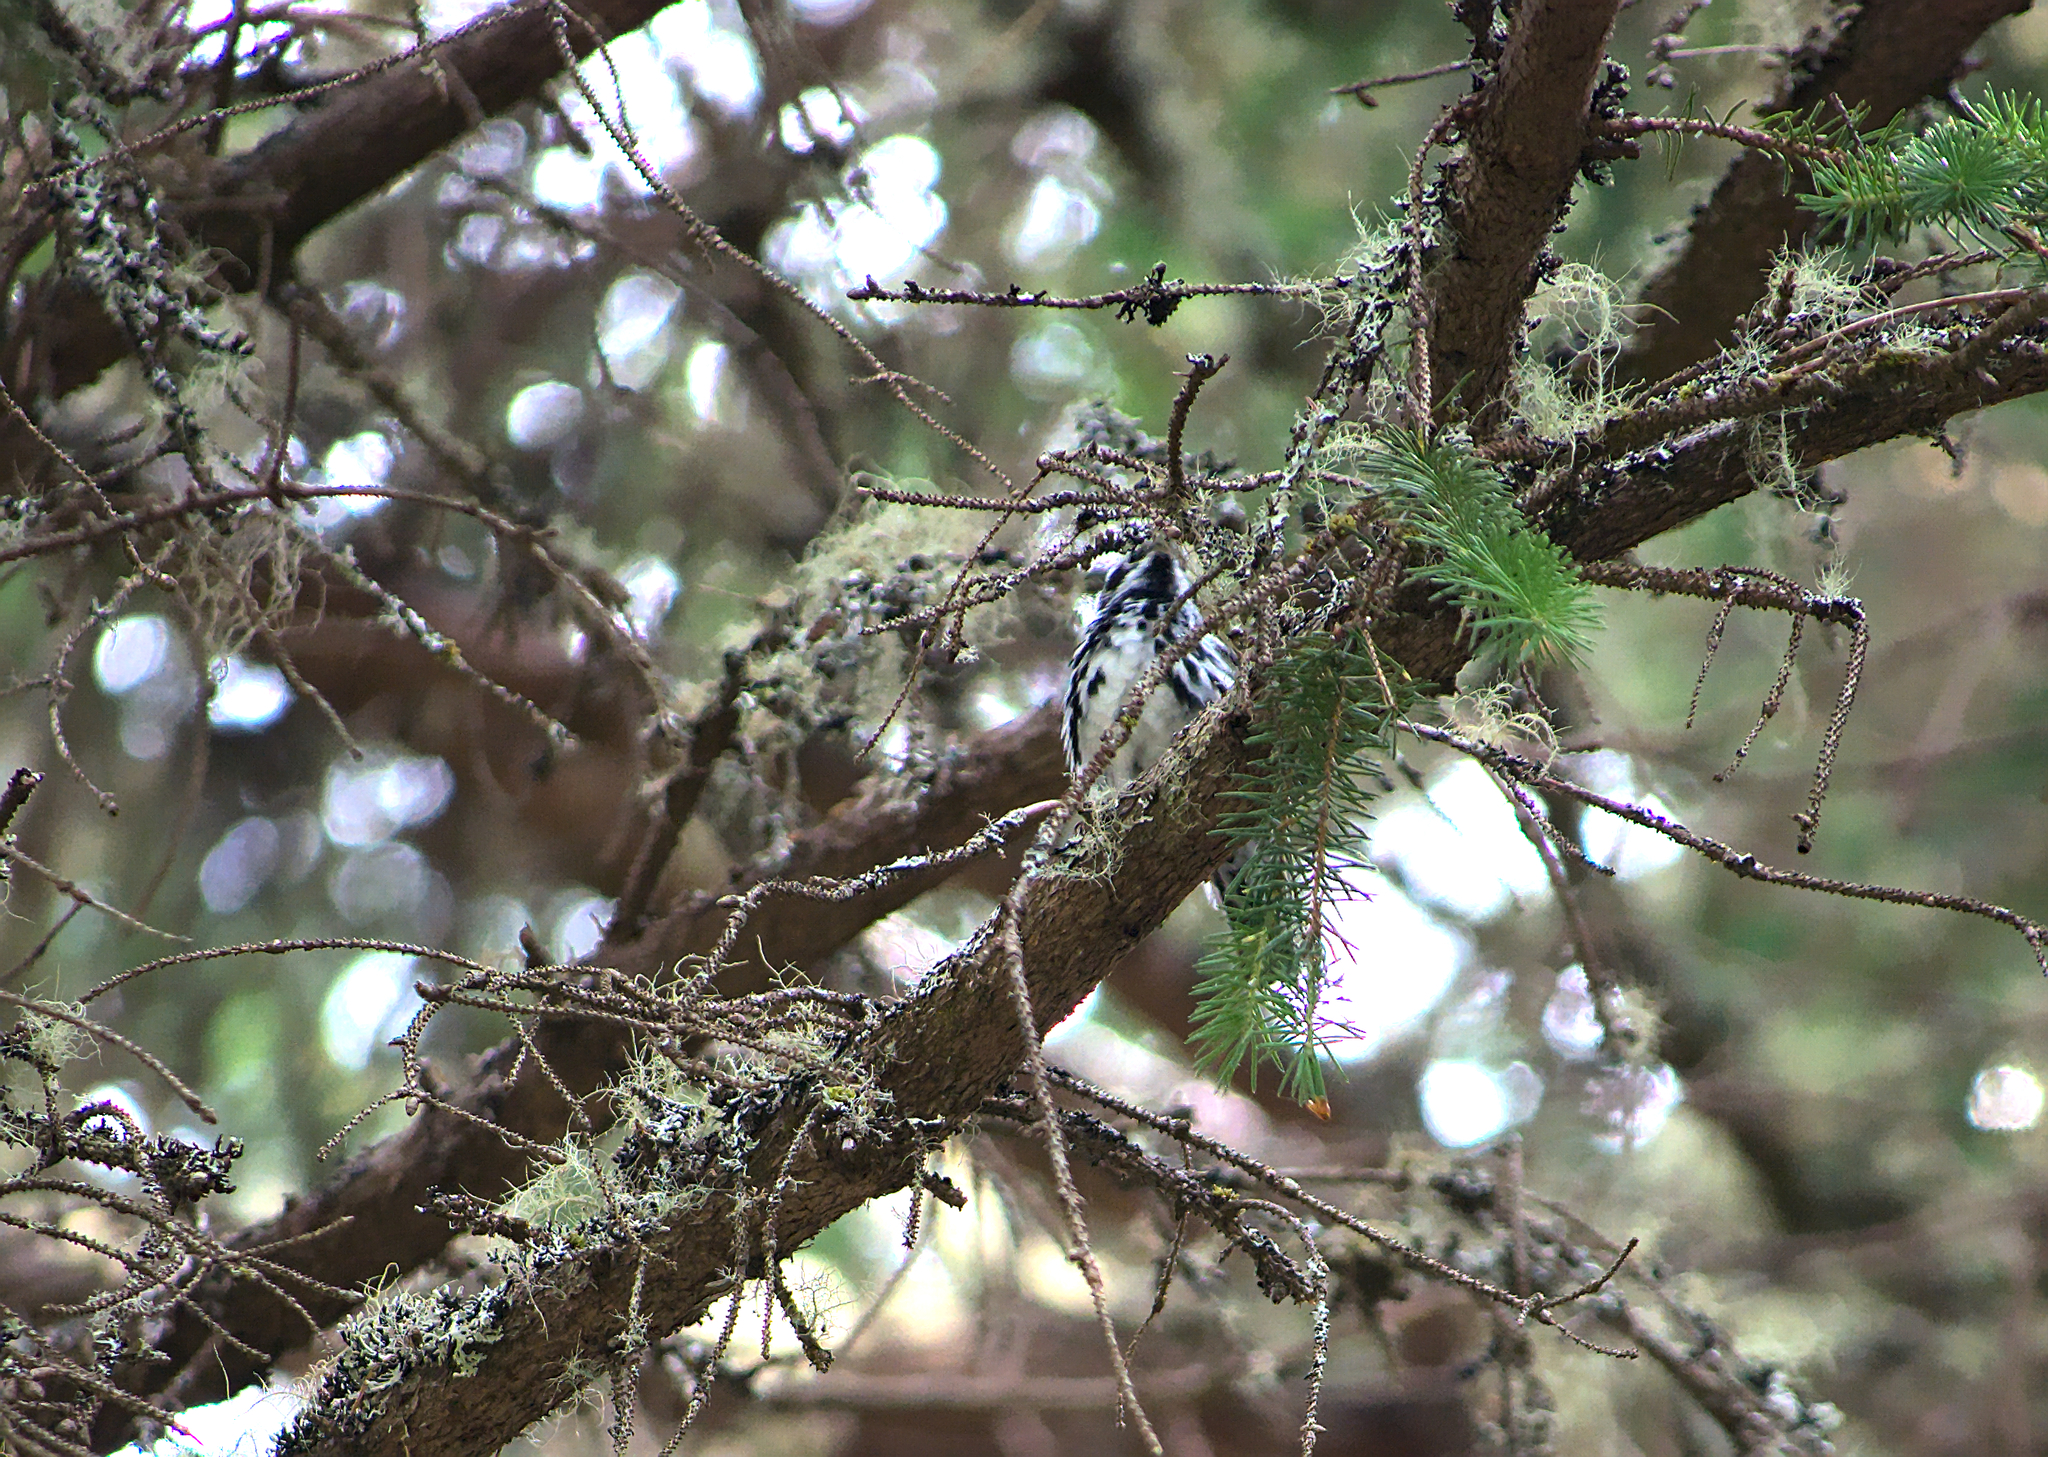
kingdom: Animalia
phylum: Chordata
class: Aves
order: Passeriformes
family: Parulidae
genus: Mniotilta
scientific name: Mniotilta varia
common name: Black-and-white warbler
